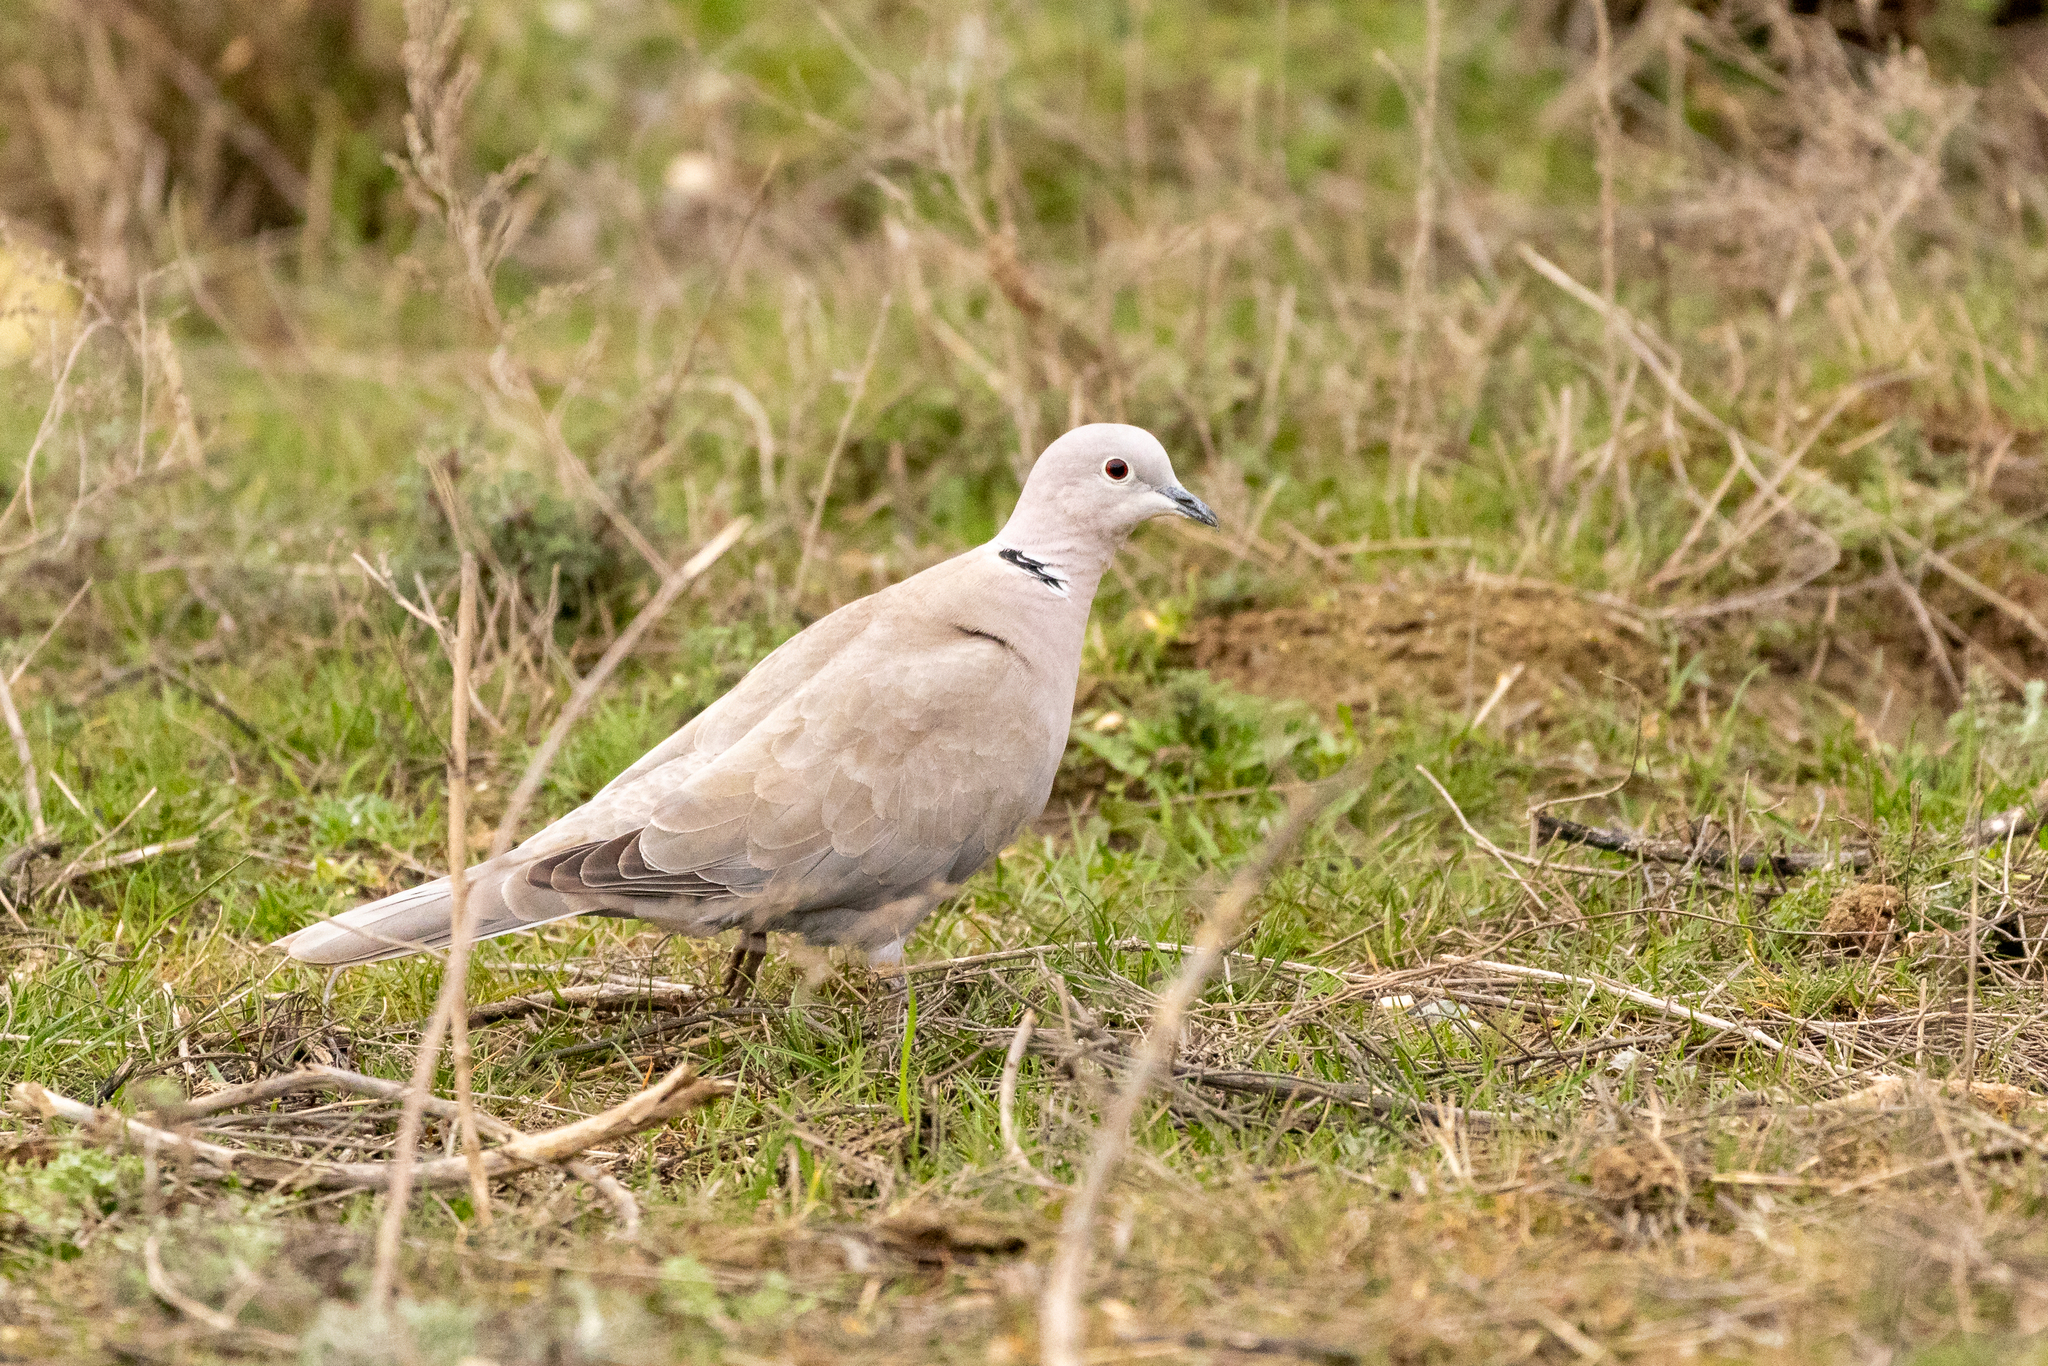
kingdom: Animalia
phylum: Chordata
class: Aves
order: Columbiformes
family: Columbidae
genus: Streptopelia
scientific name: Streptopelia decaocto
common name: Eurasian collared dove
